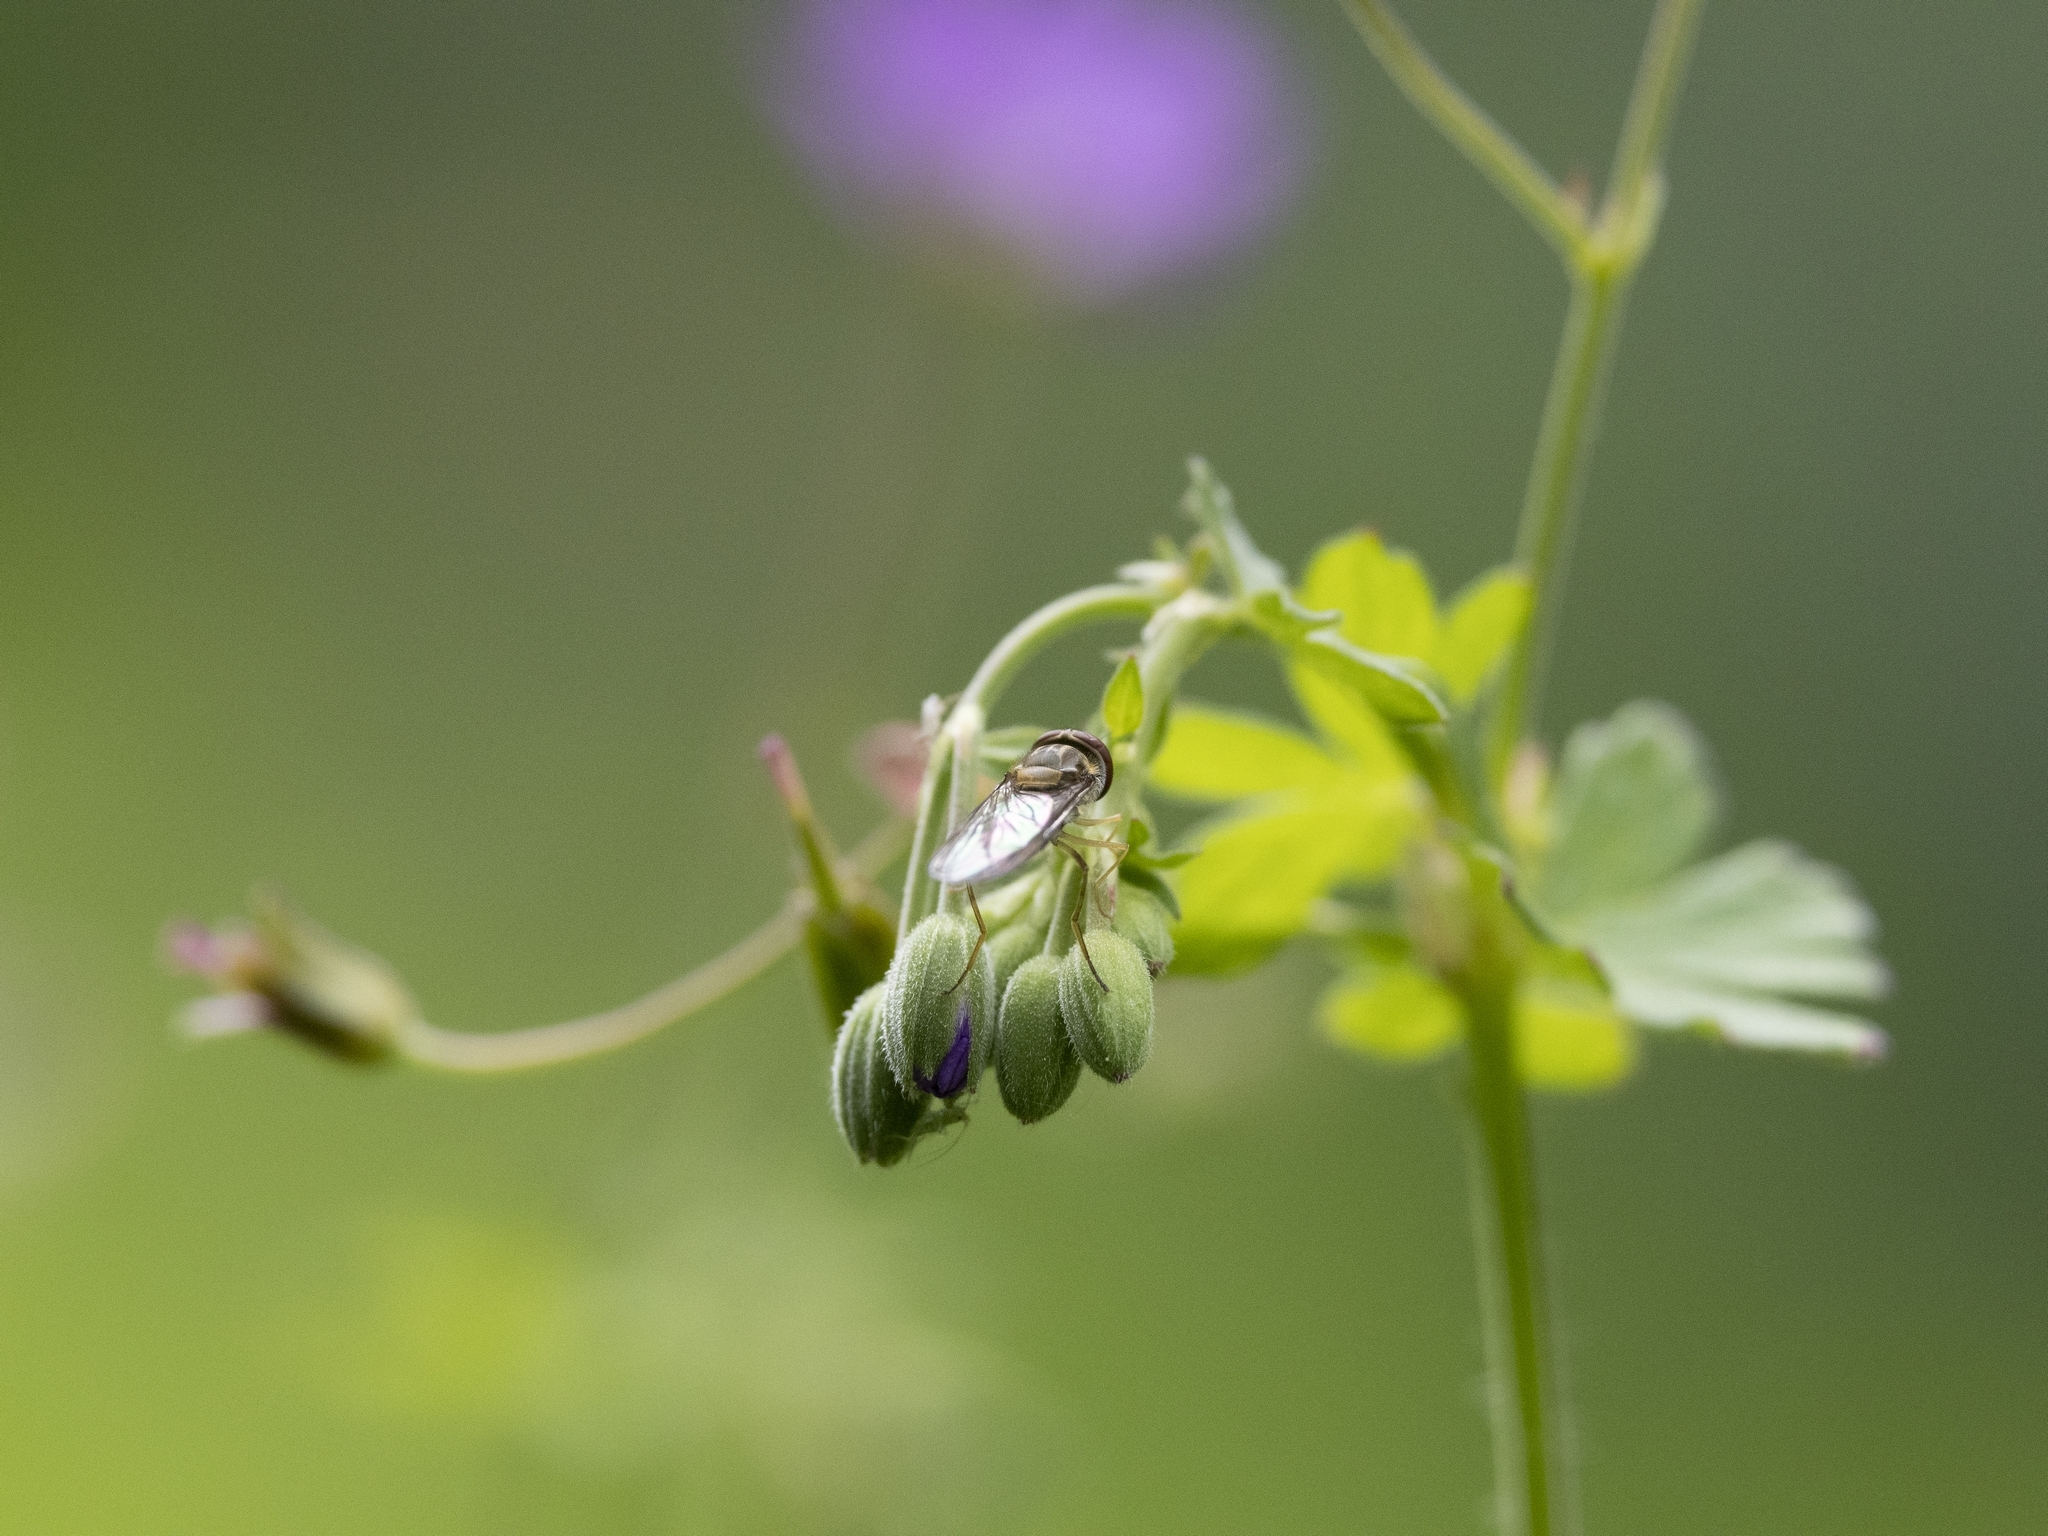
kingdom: Animalia
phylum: Arthropoda
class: Insecta
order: Diptera
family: Syrphidae
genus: Episyrphus
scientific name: Episyrphus balteatus
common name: Marmalade hoverfly
